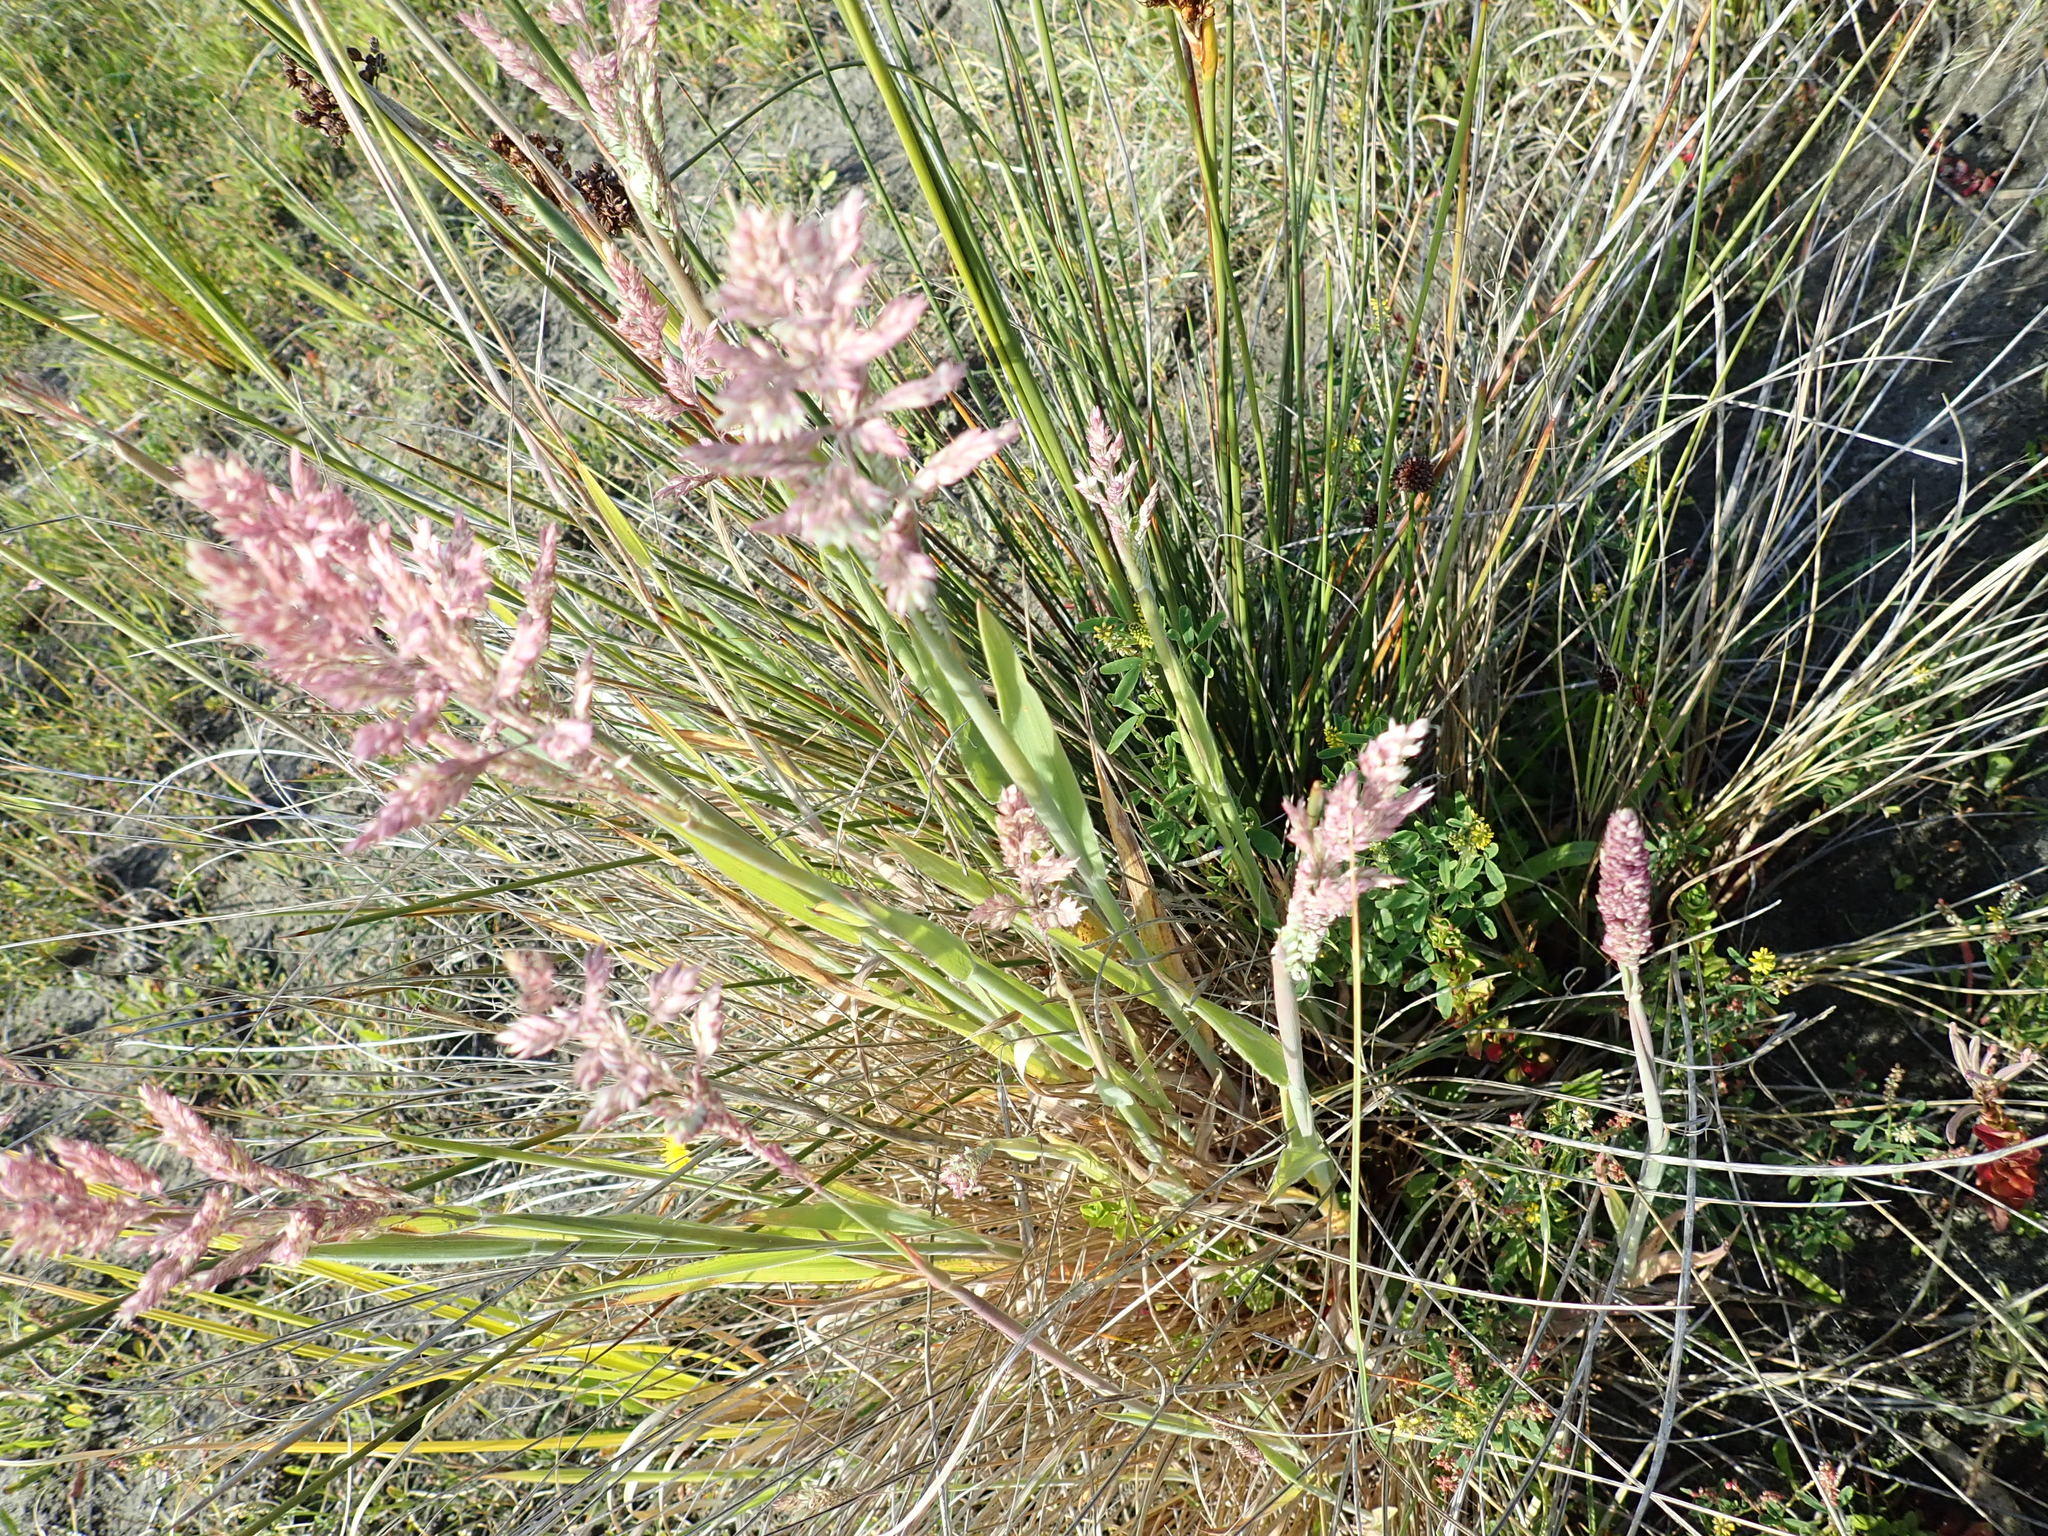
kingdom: Plantae
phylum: Tracheophyta
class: Liliopsida
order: Poales
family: Poaceae
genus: Holcus
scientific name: Holcus lanatus
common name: Yorkshire-fog
